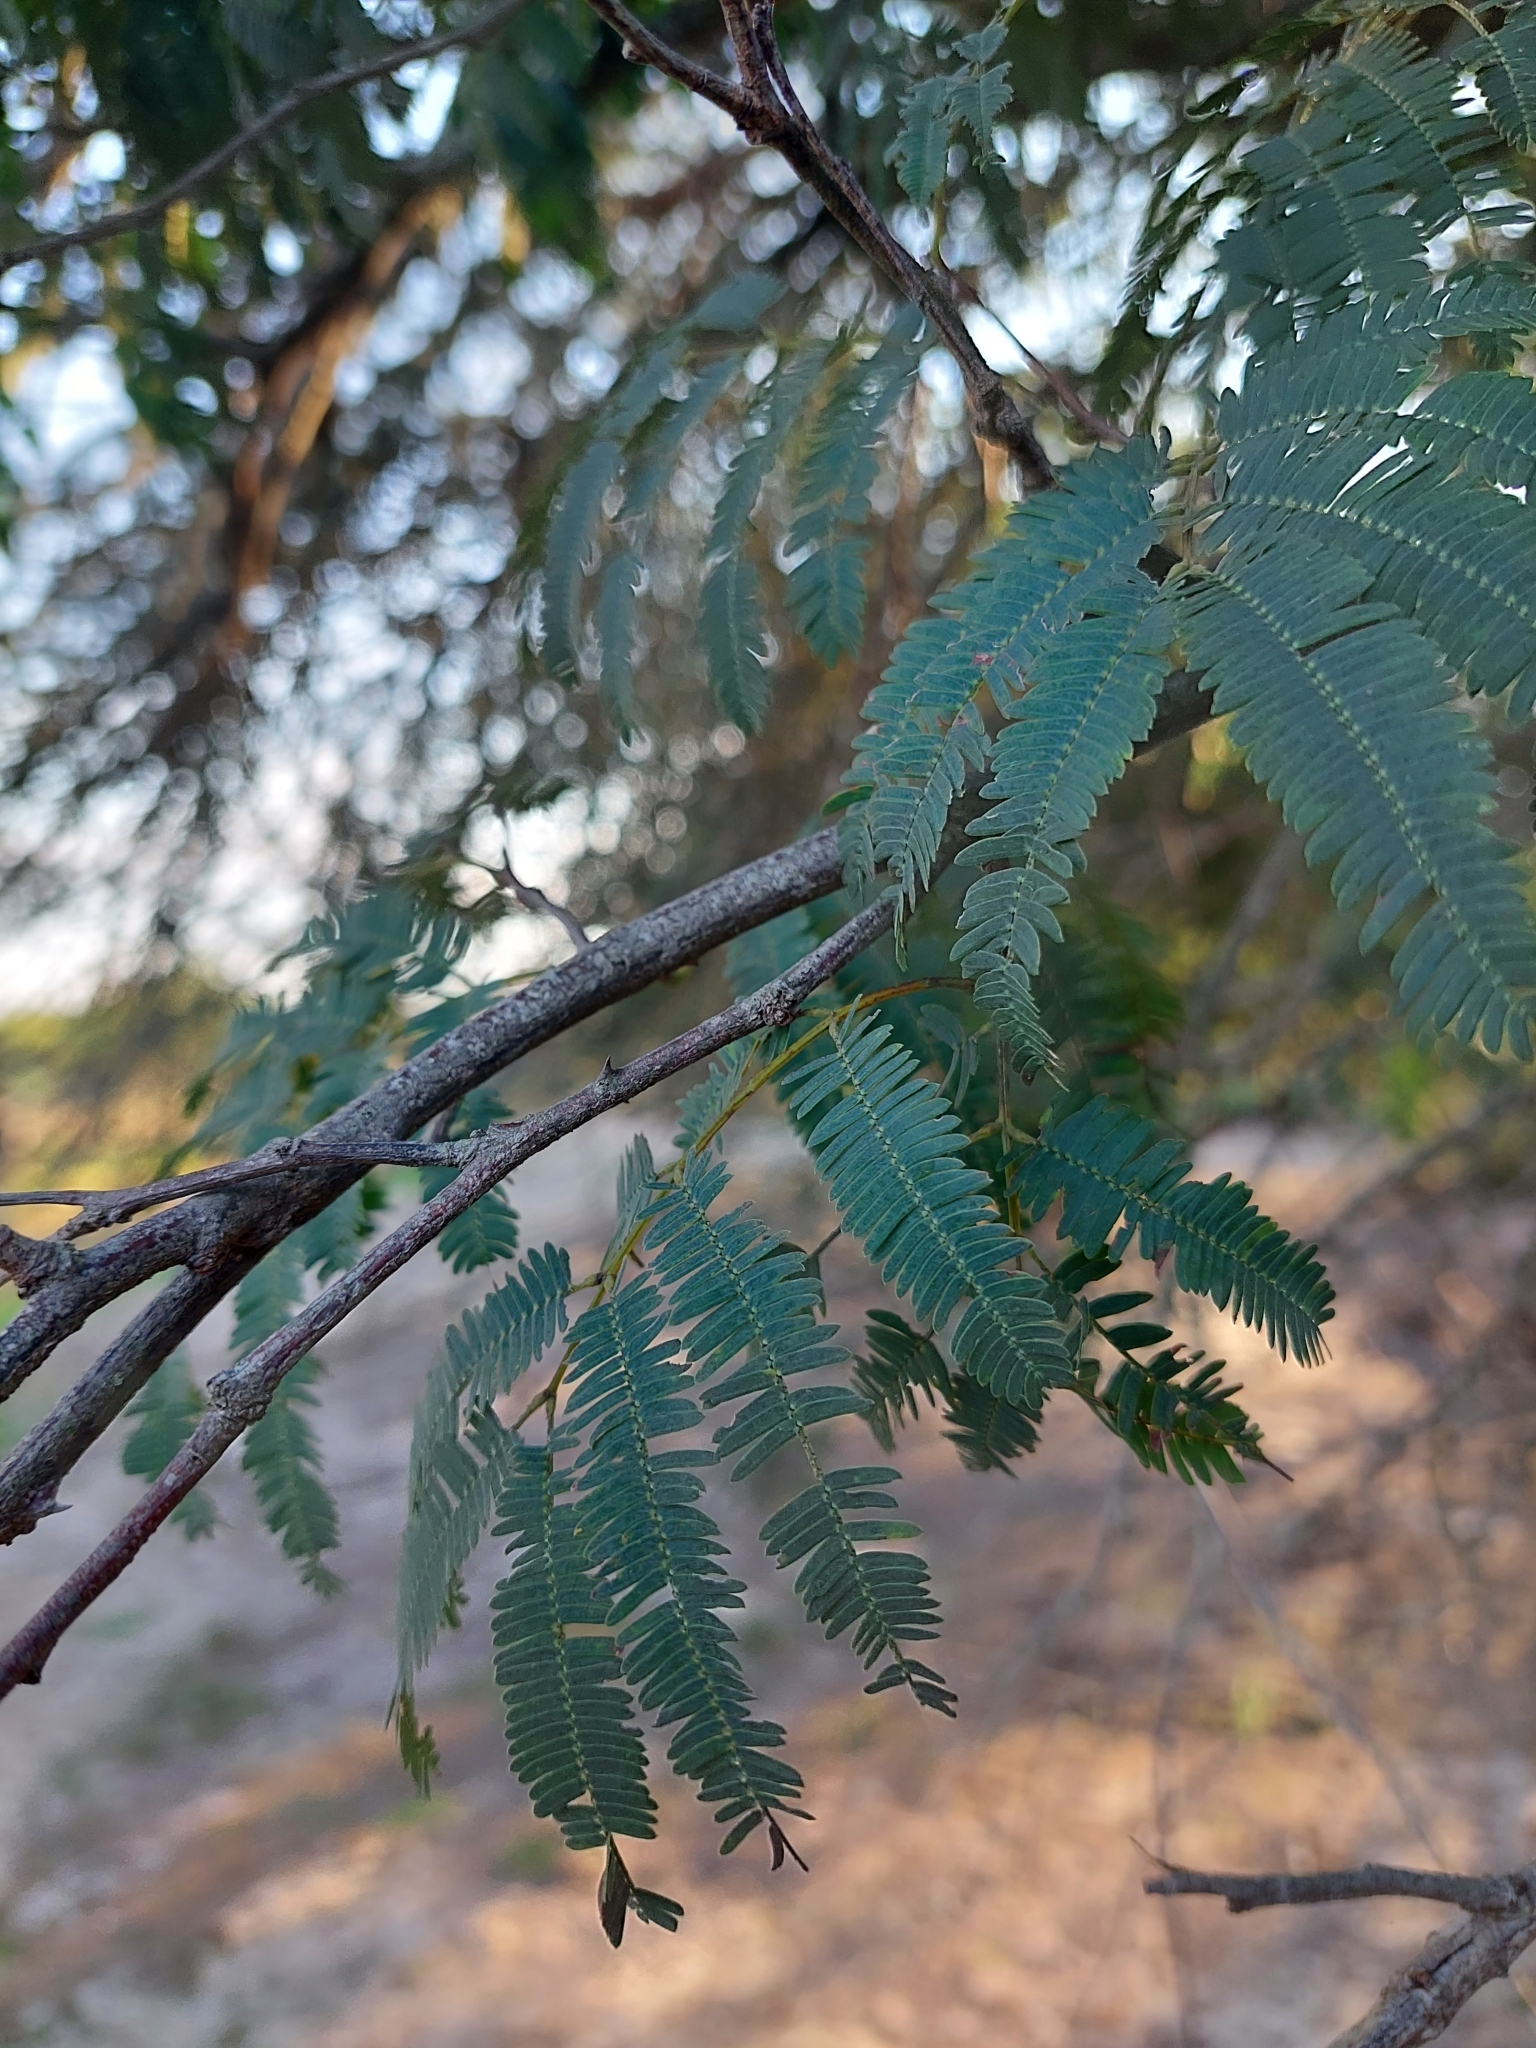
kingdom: Plantae
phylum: Tracheophyta
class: Magnoliopsida
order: Fabales
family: Fabaceae
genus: Senegalia
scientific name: Senegalia praecox
